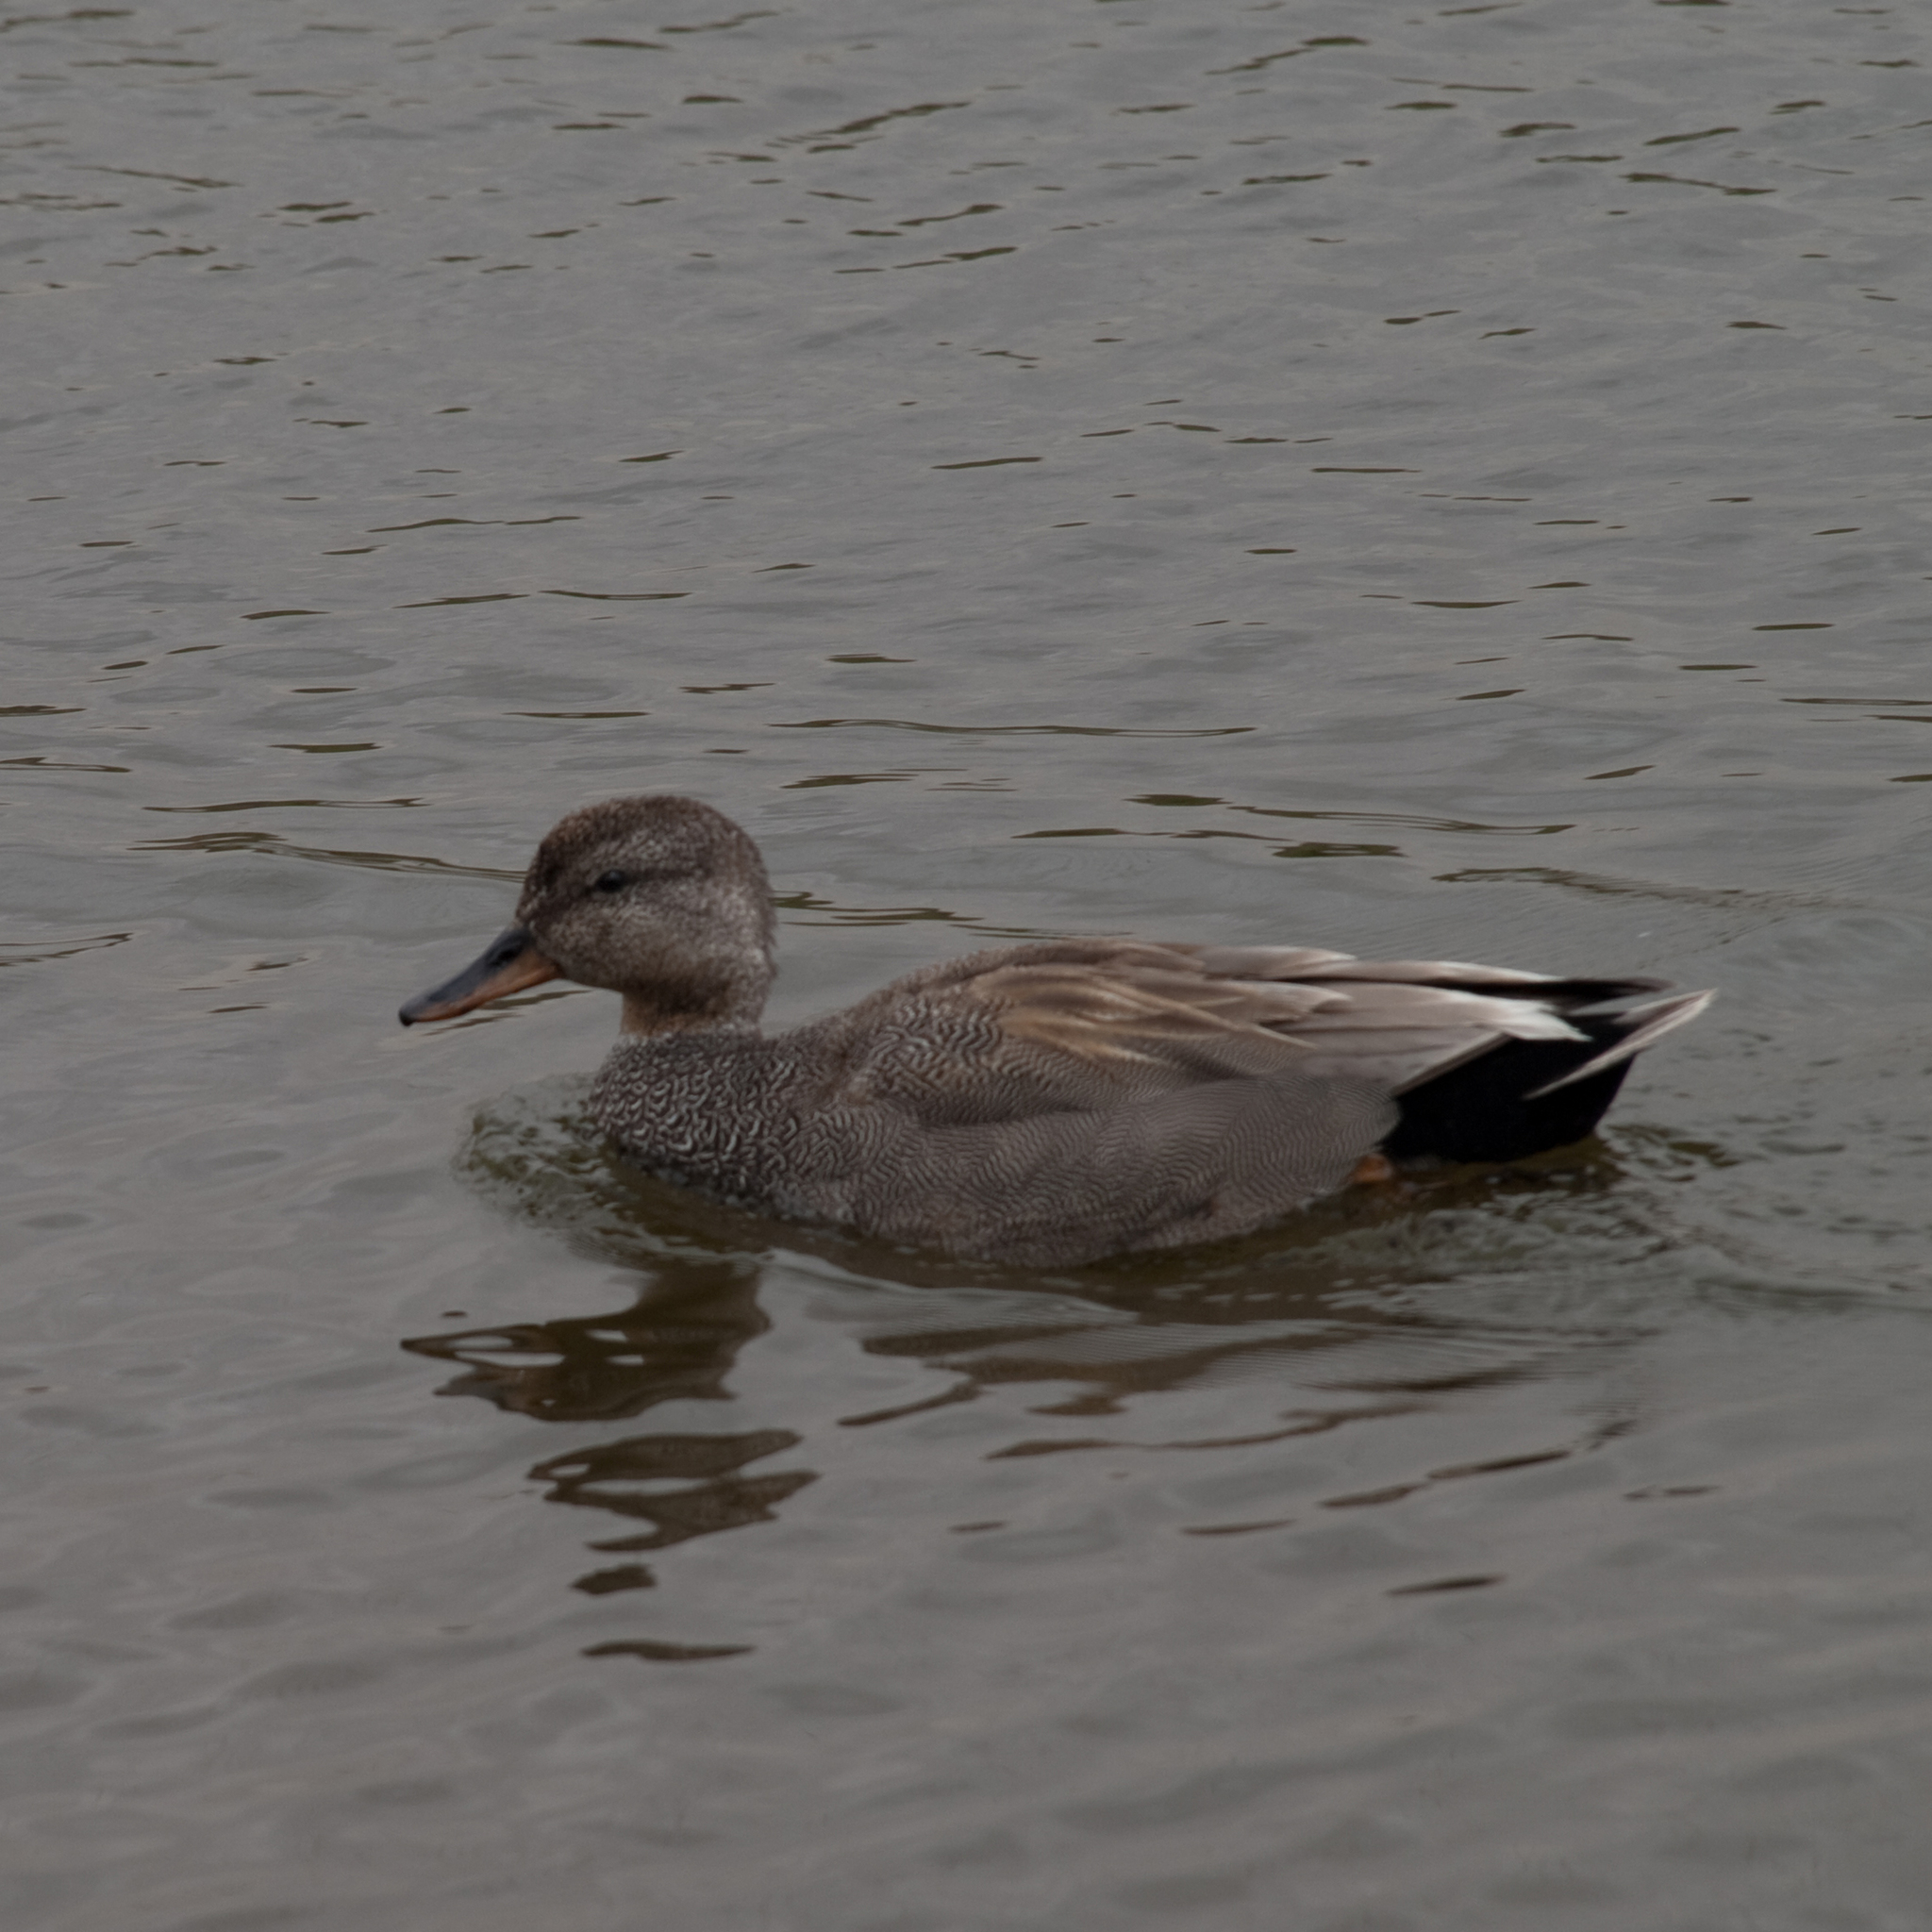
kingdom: Animalia
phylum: Chordata
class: Aves
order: Anseriformes
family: Anatidae
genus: Mareca
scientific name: Mareca strepera
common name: Gadwall
